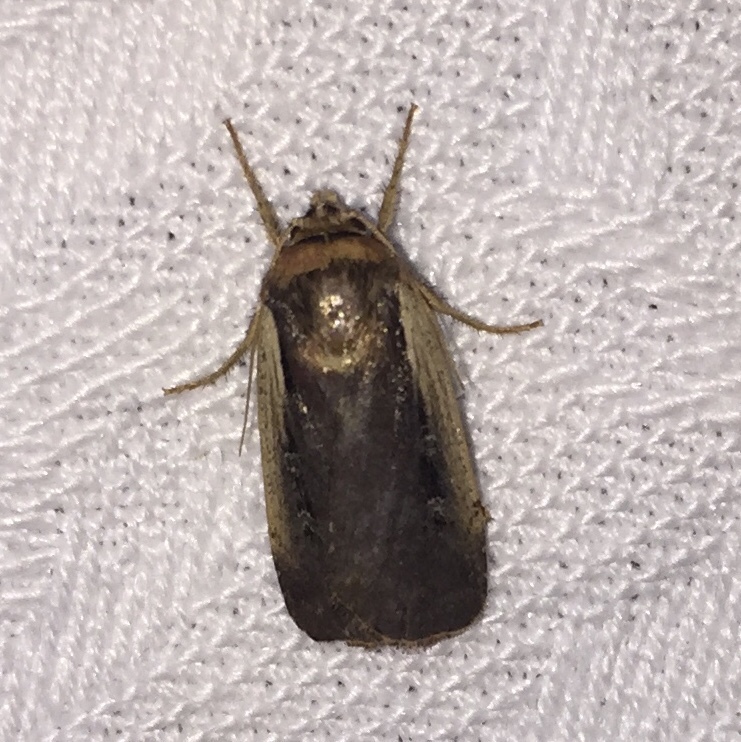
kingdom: Animalia
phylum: Arthropoda
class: Insecta
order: Lepidoptera
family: Noctuidae
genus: Ochropleura
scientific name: Ochropleura implecta
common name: Flame-shouldered dart
